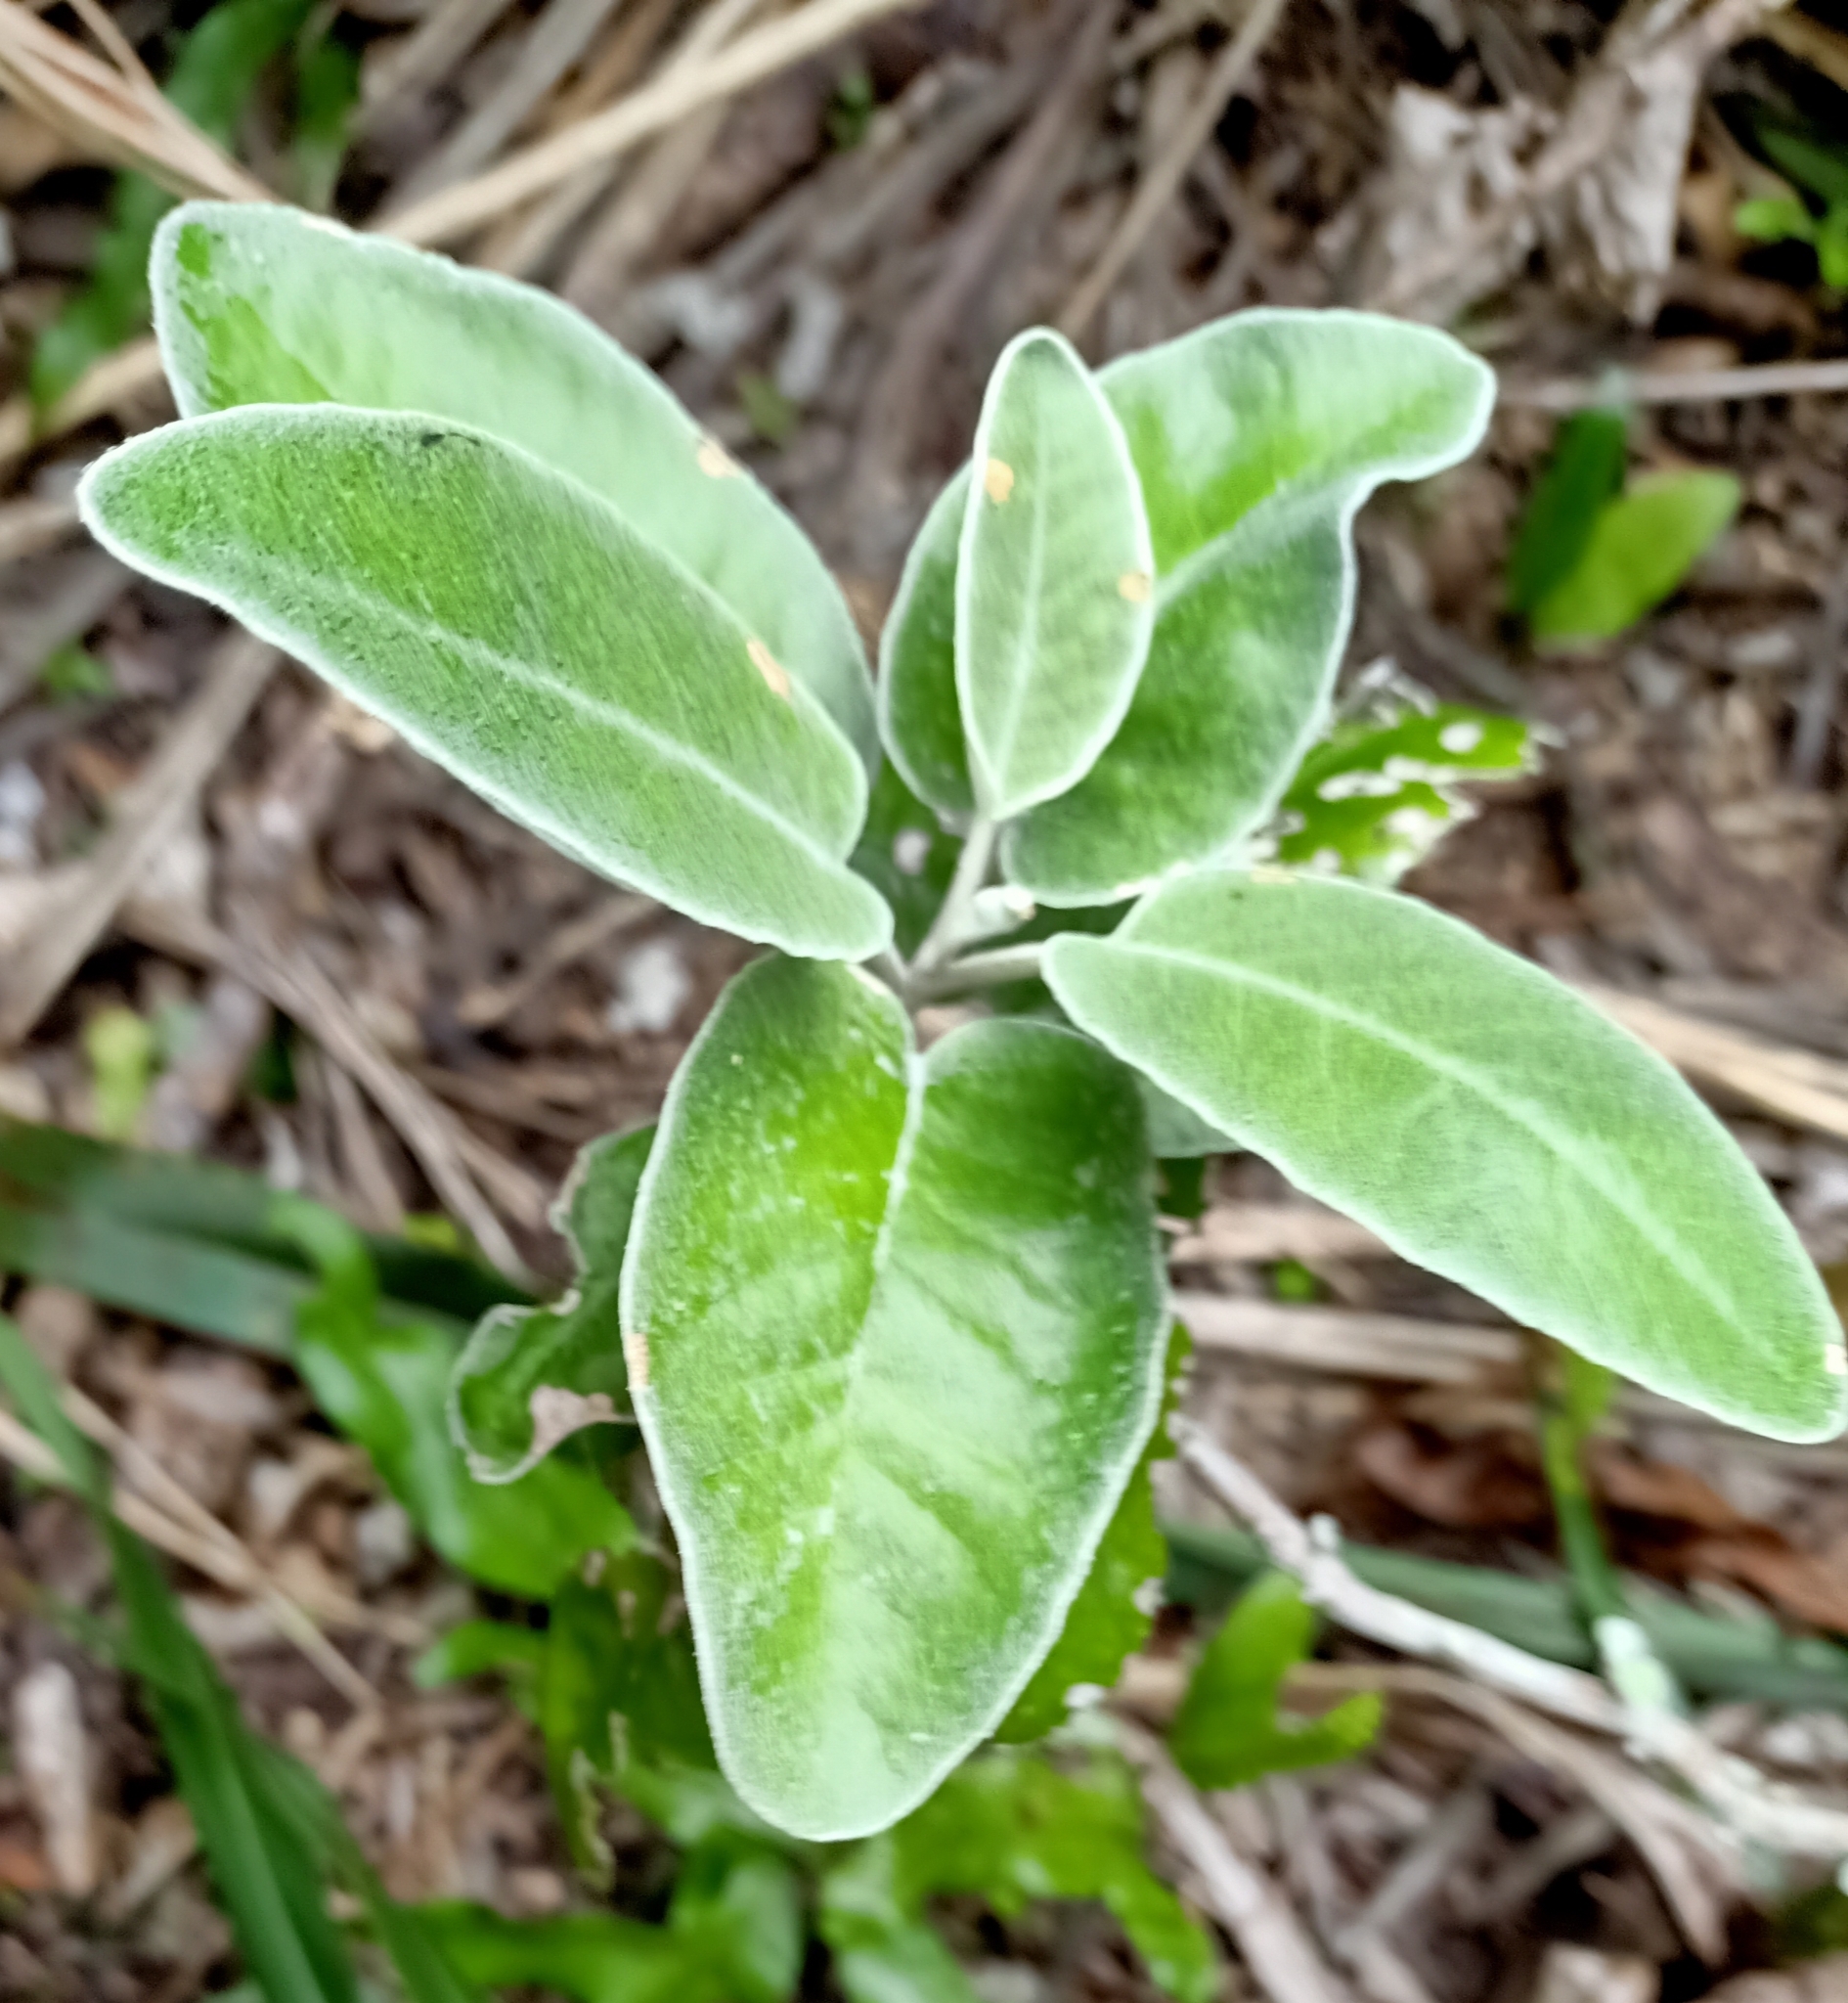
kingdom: Plantae
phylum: Tracheophyta
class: Magnoliopsida
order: Asterales
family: Asteraceae
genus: Brachyglottis
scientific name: Brachyglottis greyi
